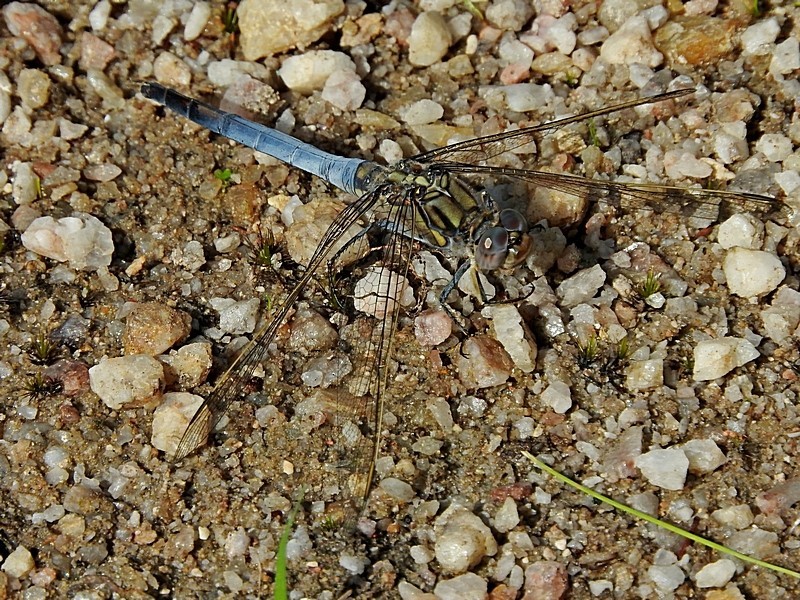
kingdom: Animalia
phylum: Arthropoda
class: Insecta
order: Odonata
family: Libellulidae
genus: Orthetrum
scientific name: Orthetrum caledonicum
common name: Blue skimmer
